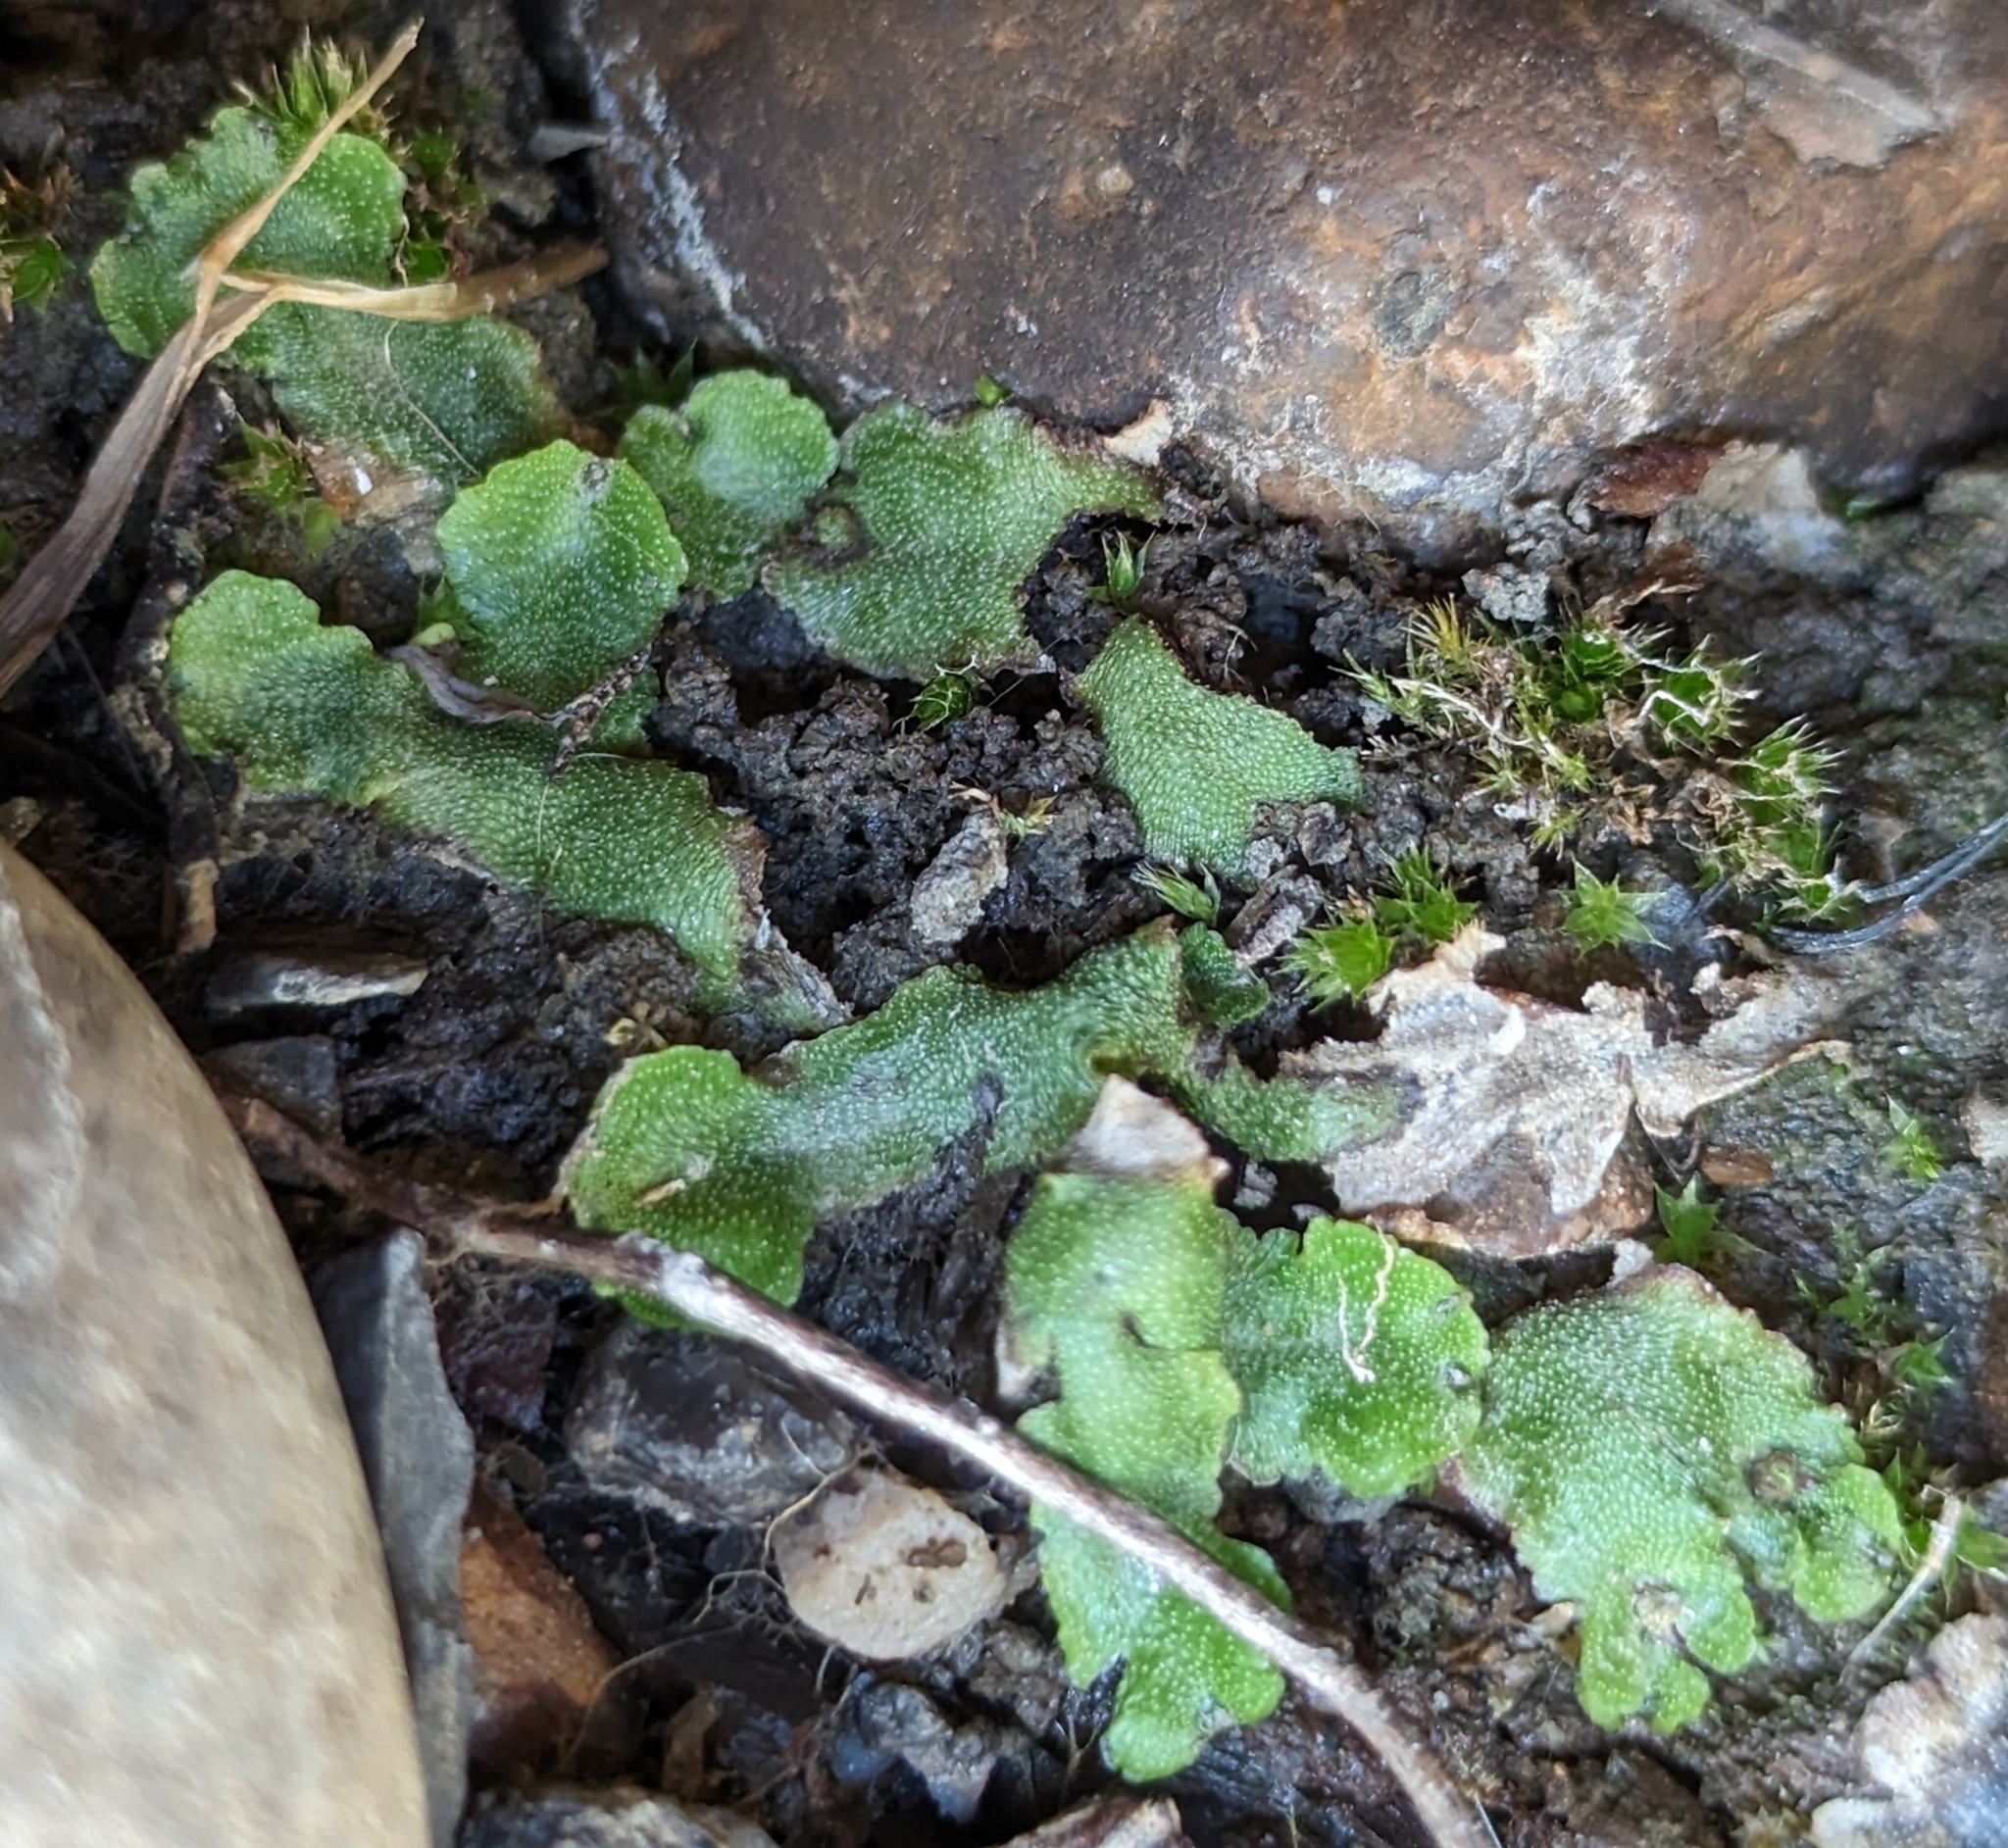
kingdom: Plantae
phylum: Marchantiophyta
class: Marchantiopsida
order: Marchantiales
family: Marchantiaceae
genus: Marchantia
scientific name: Marchantia quadrata
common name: Narrow mushroom-headed liverwort
